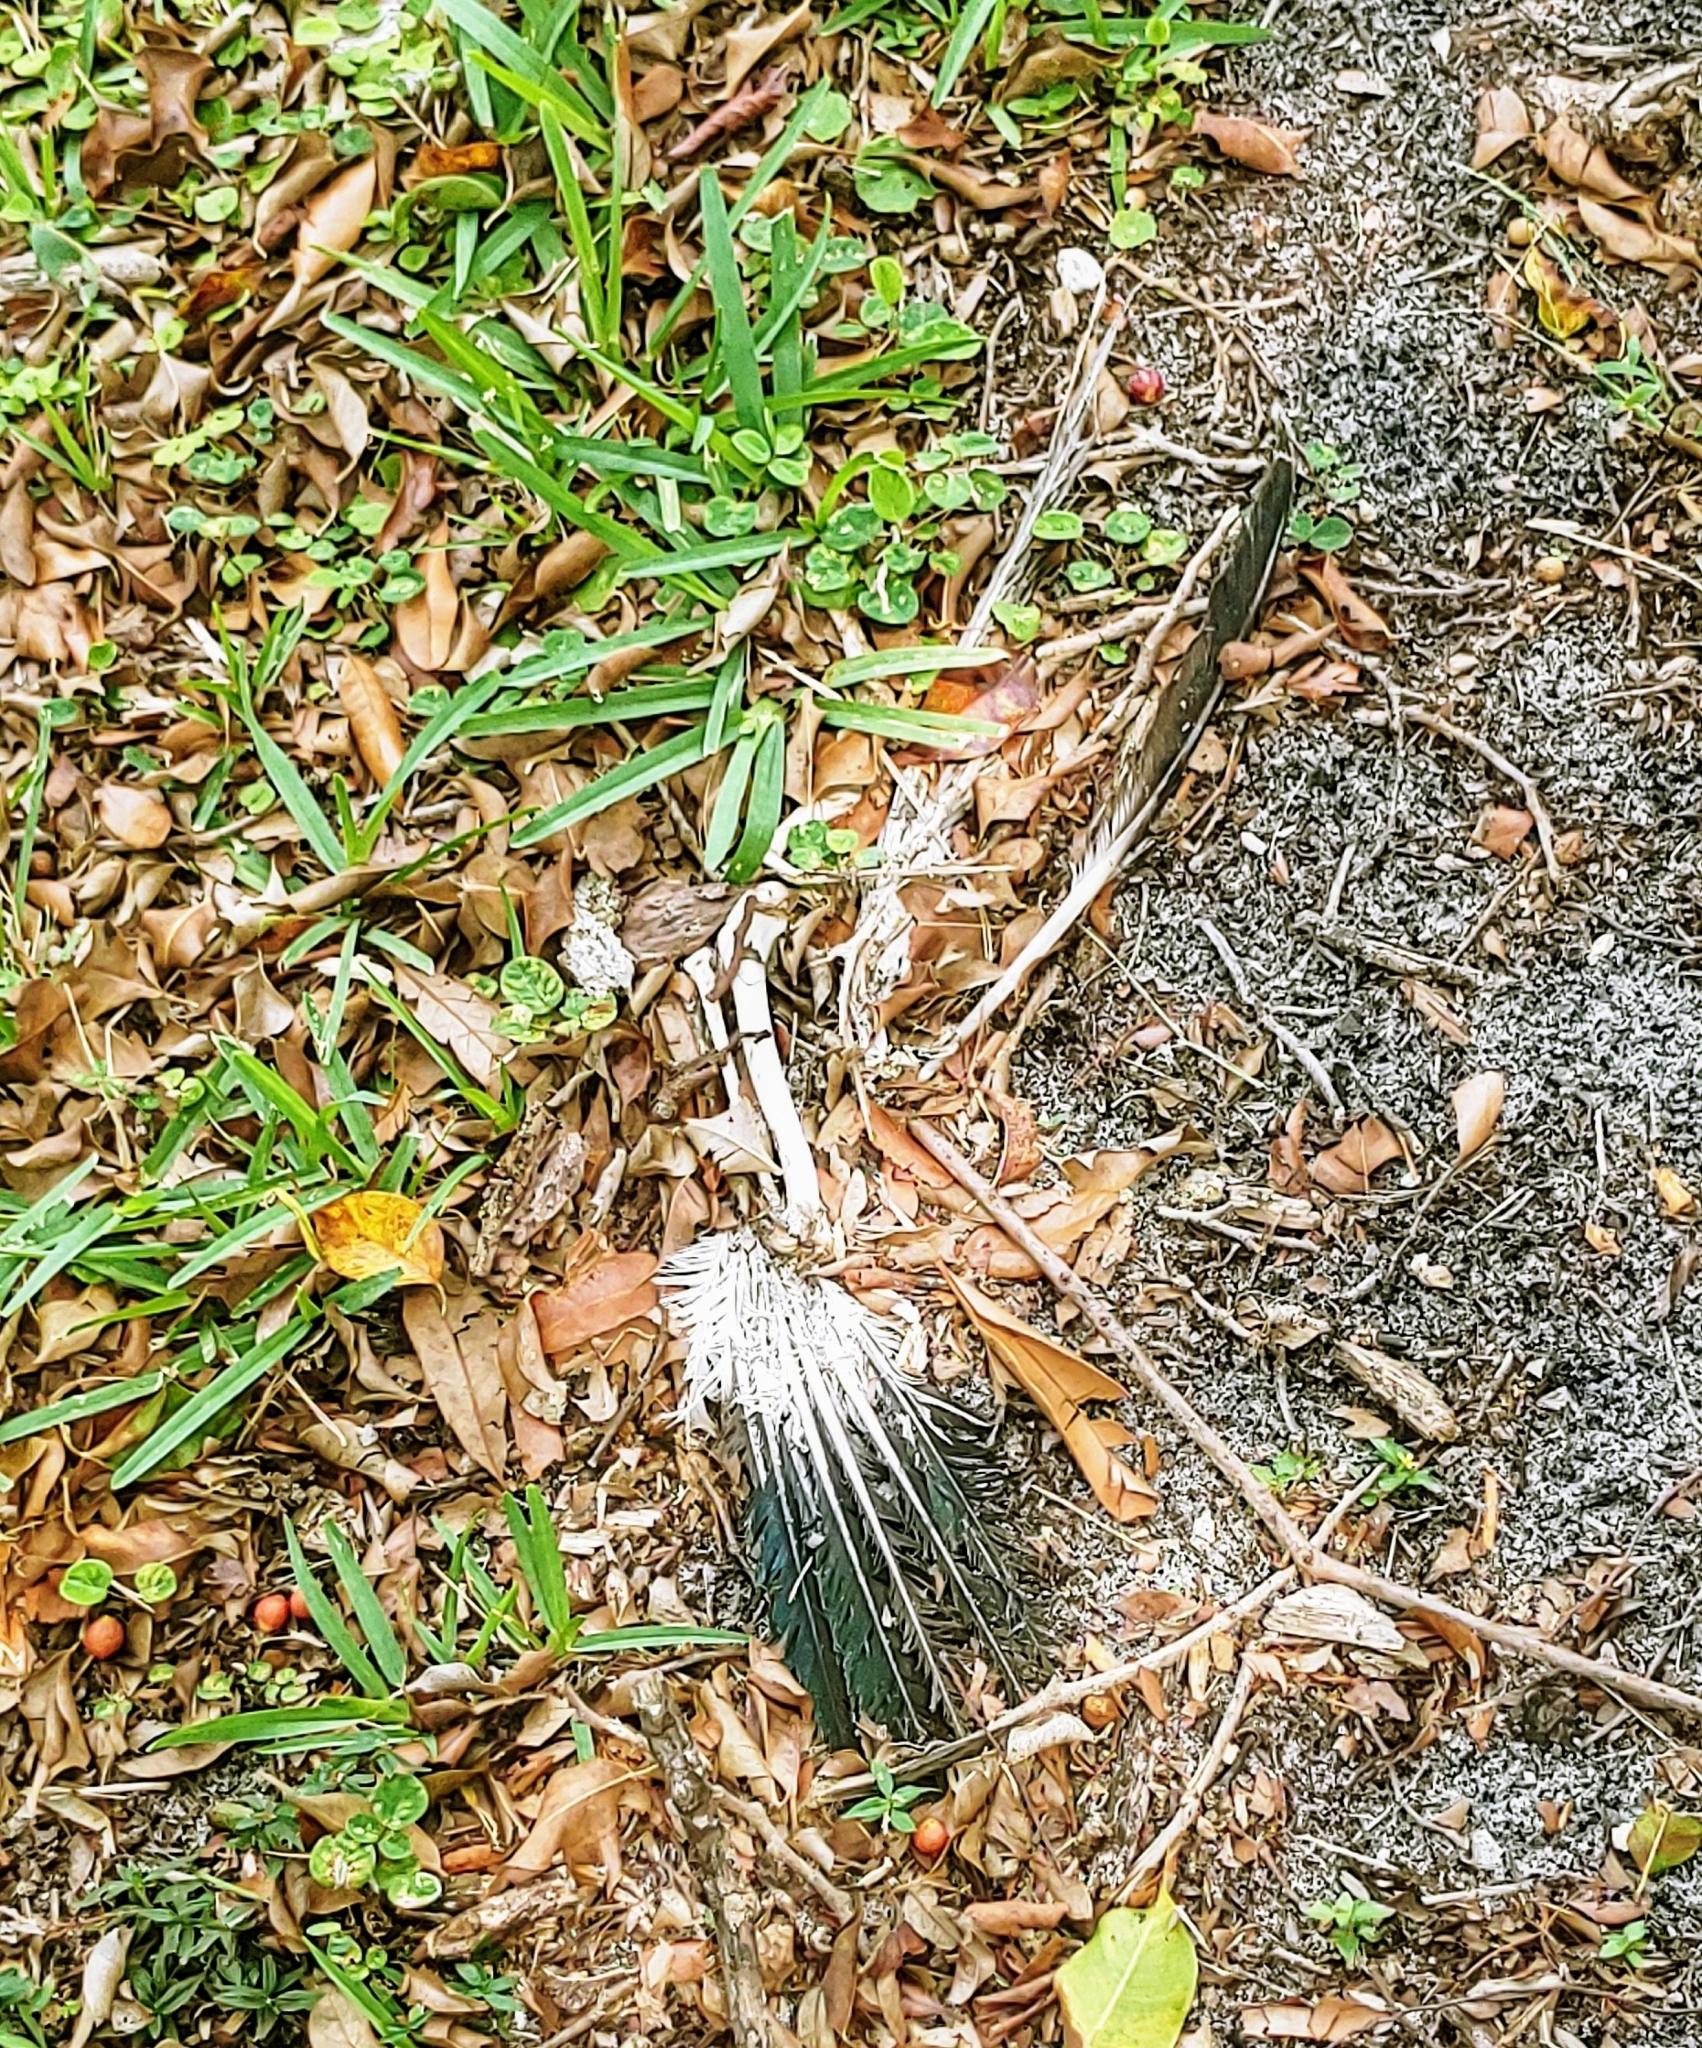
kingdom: Animalia
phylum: Chordata
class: Aves
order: Anseriformes
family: Anatidae
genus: Cairina
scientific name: Cairina moschata
